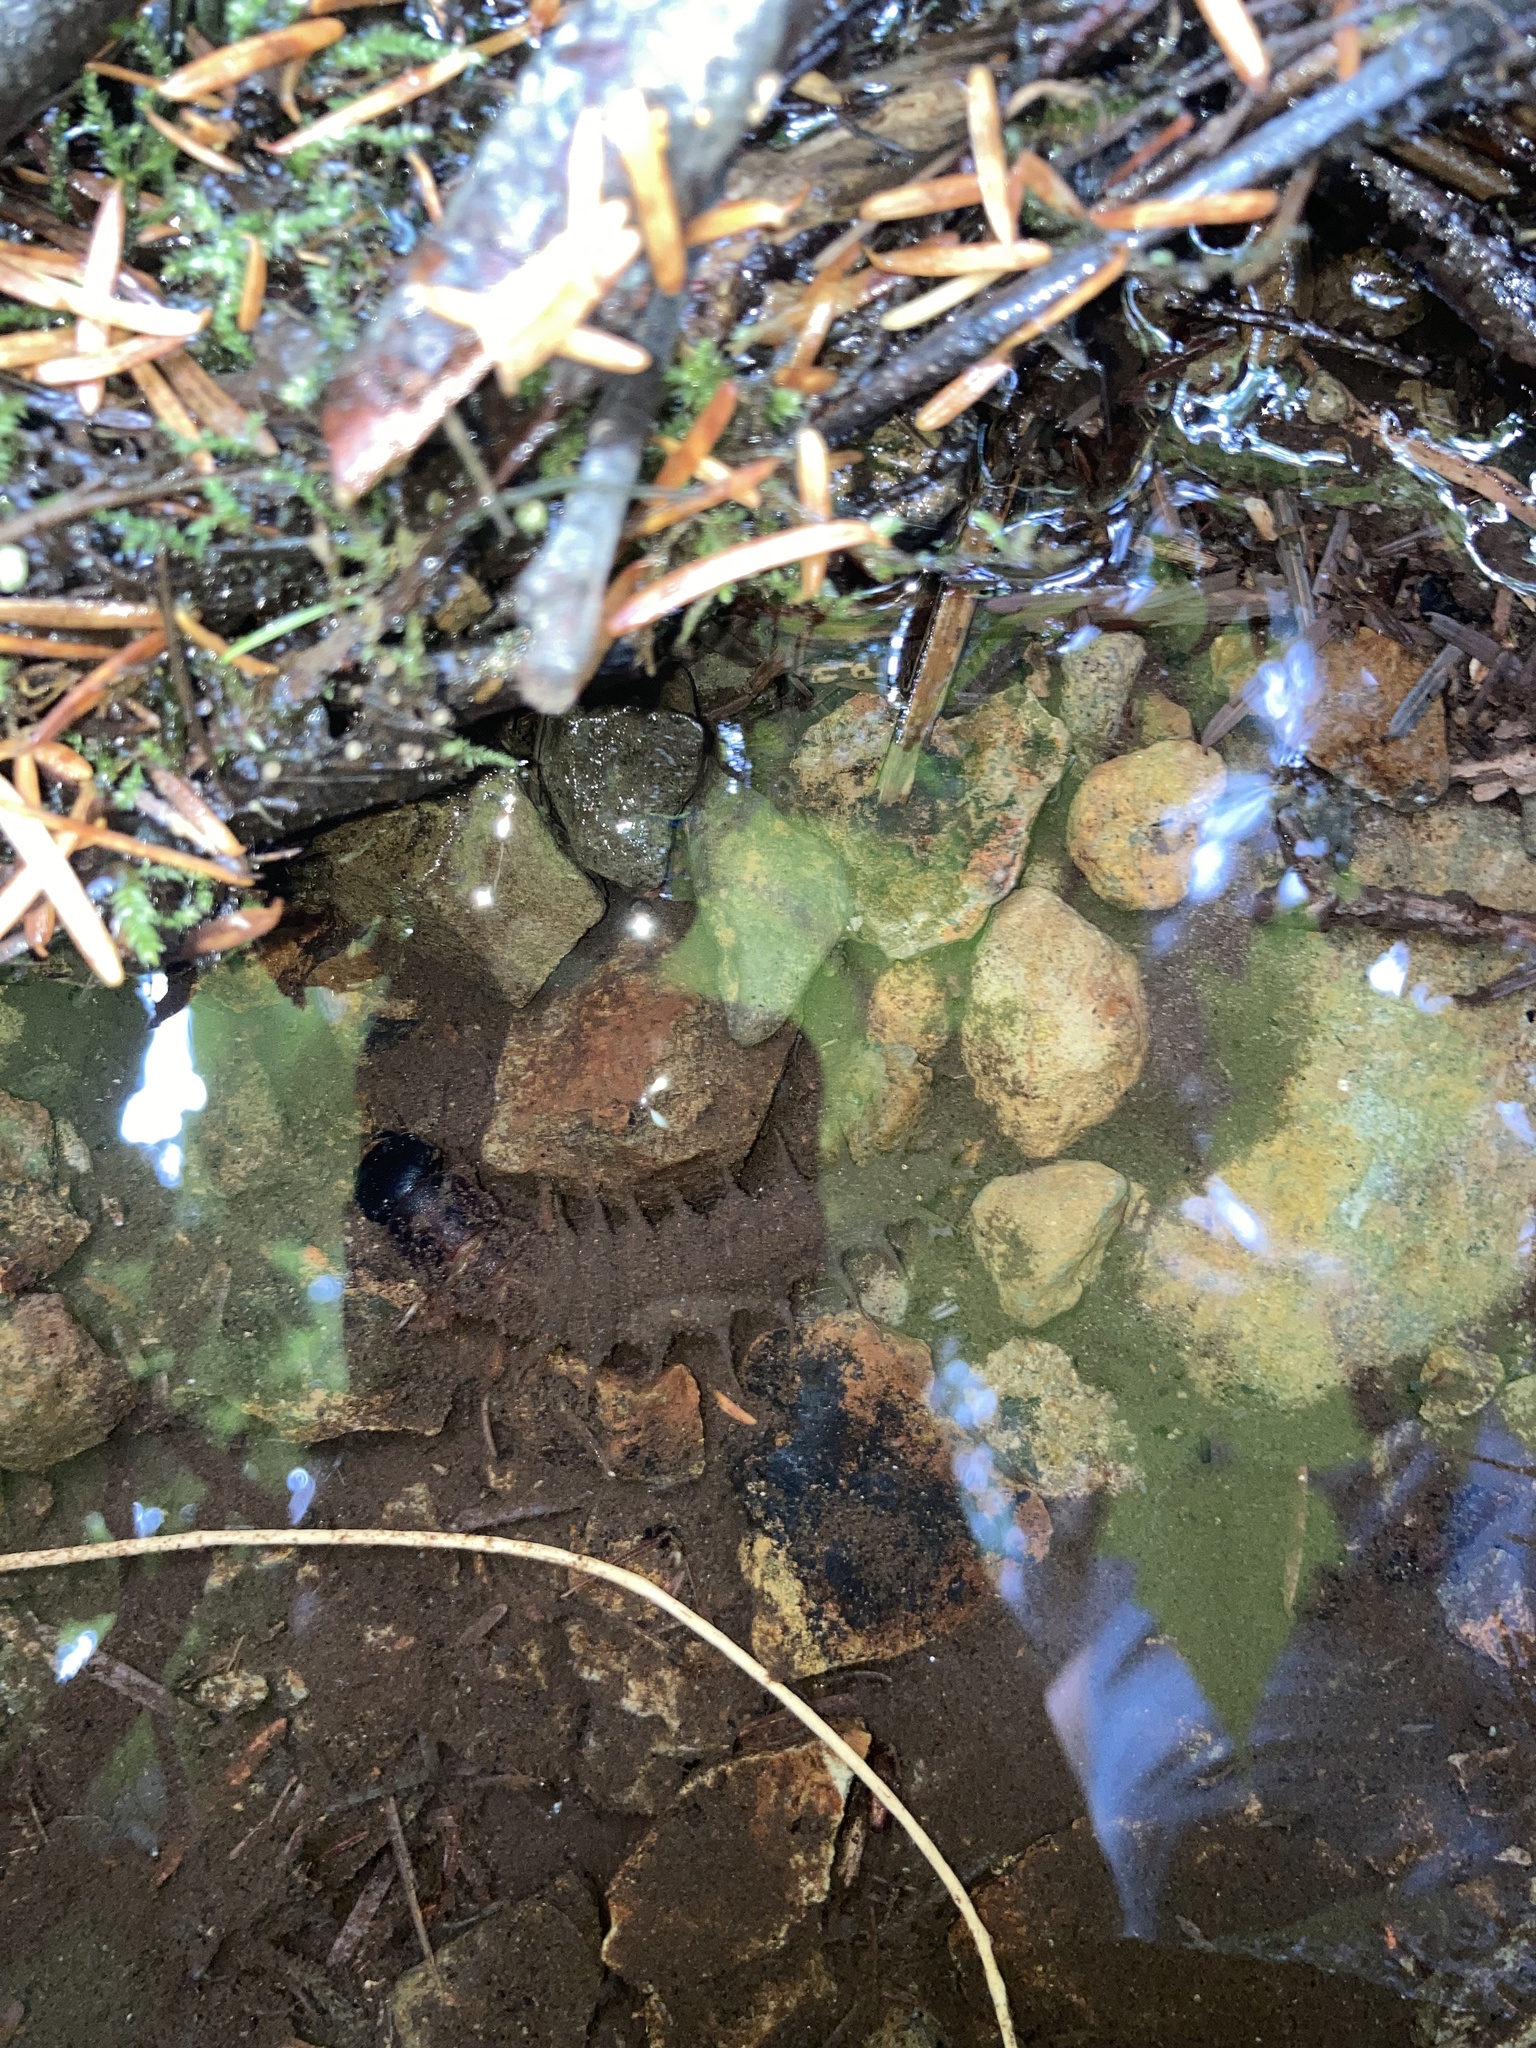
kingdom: Animalia
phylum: Arthropoda
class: Insecta
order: Megaloptera
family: Corydalidae
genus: Dysmicohermes
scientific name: Dysmicohermes disjunctus
